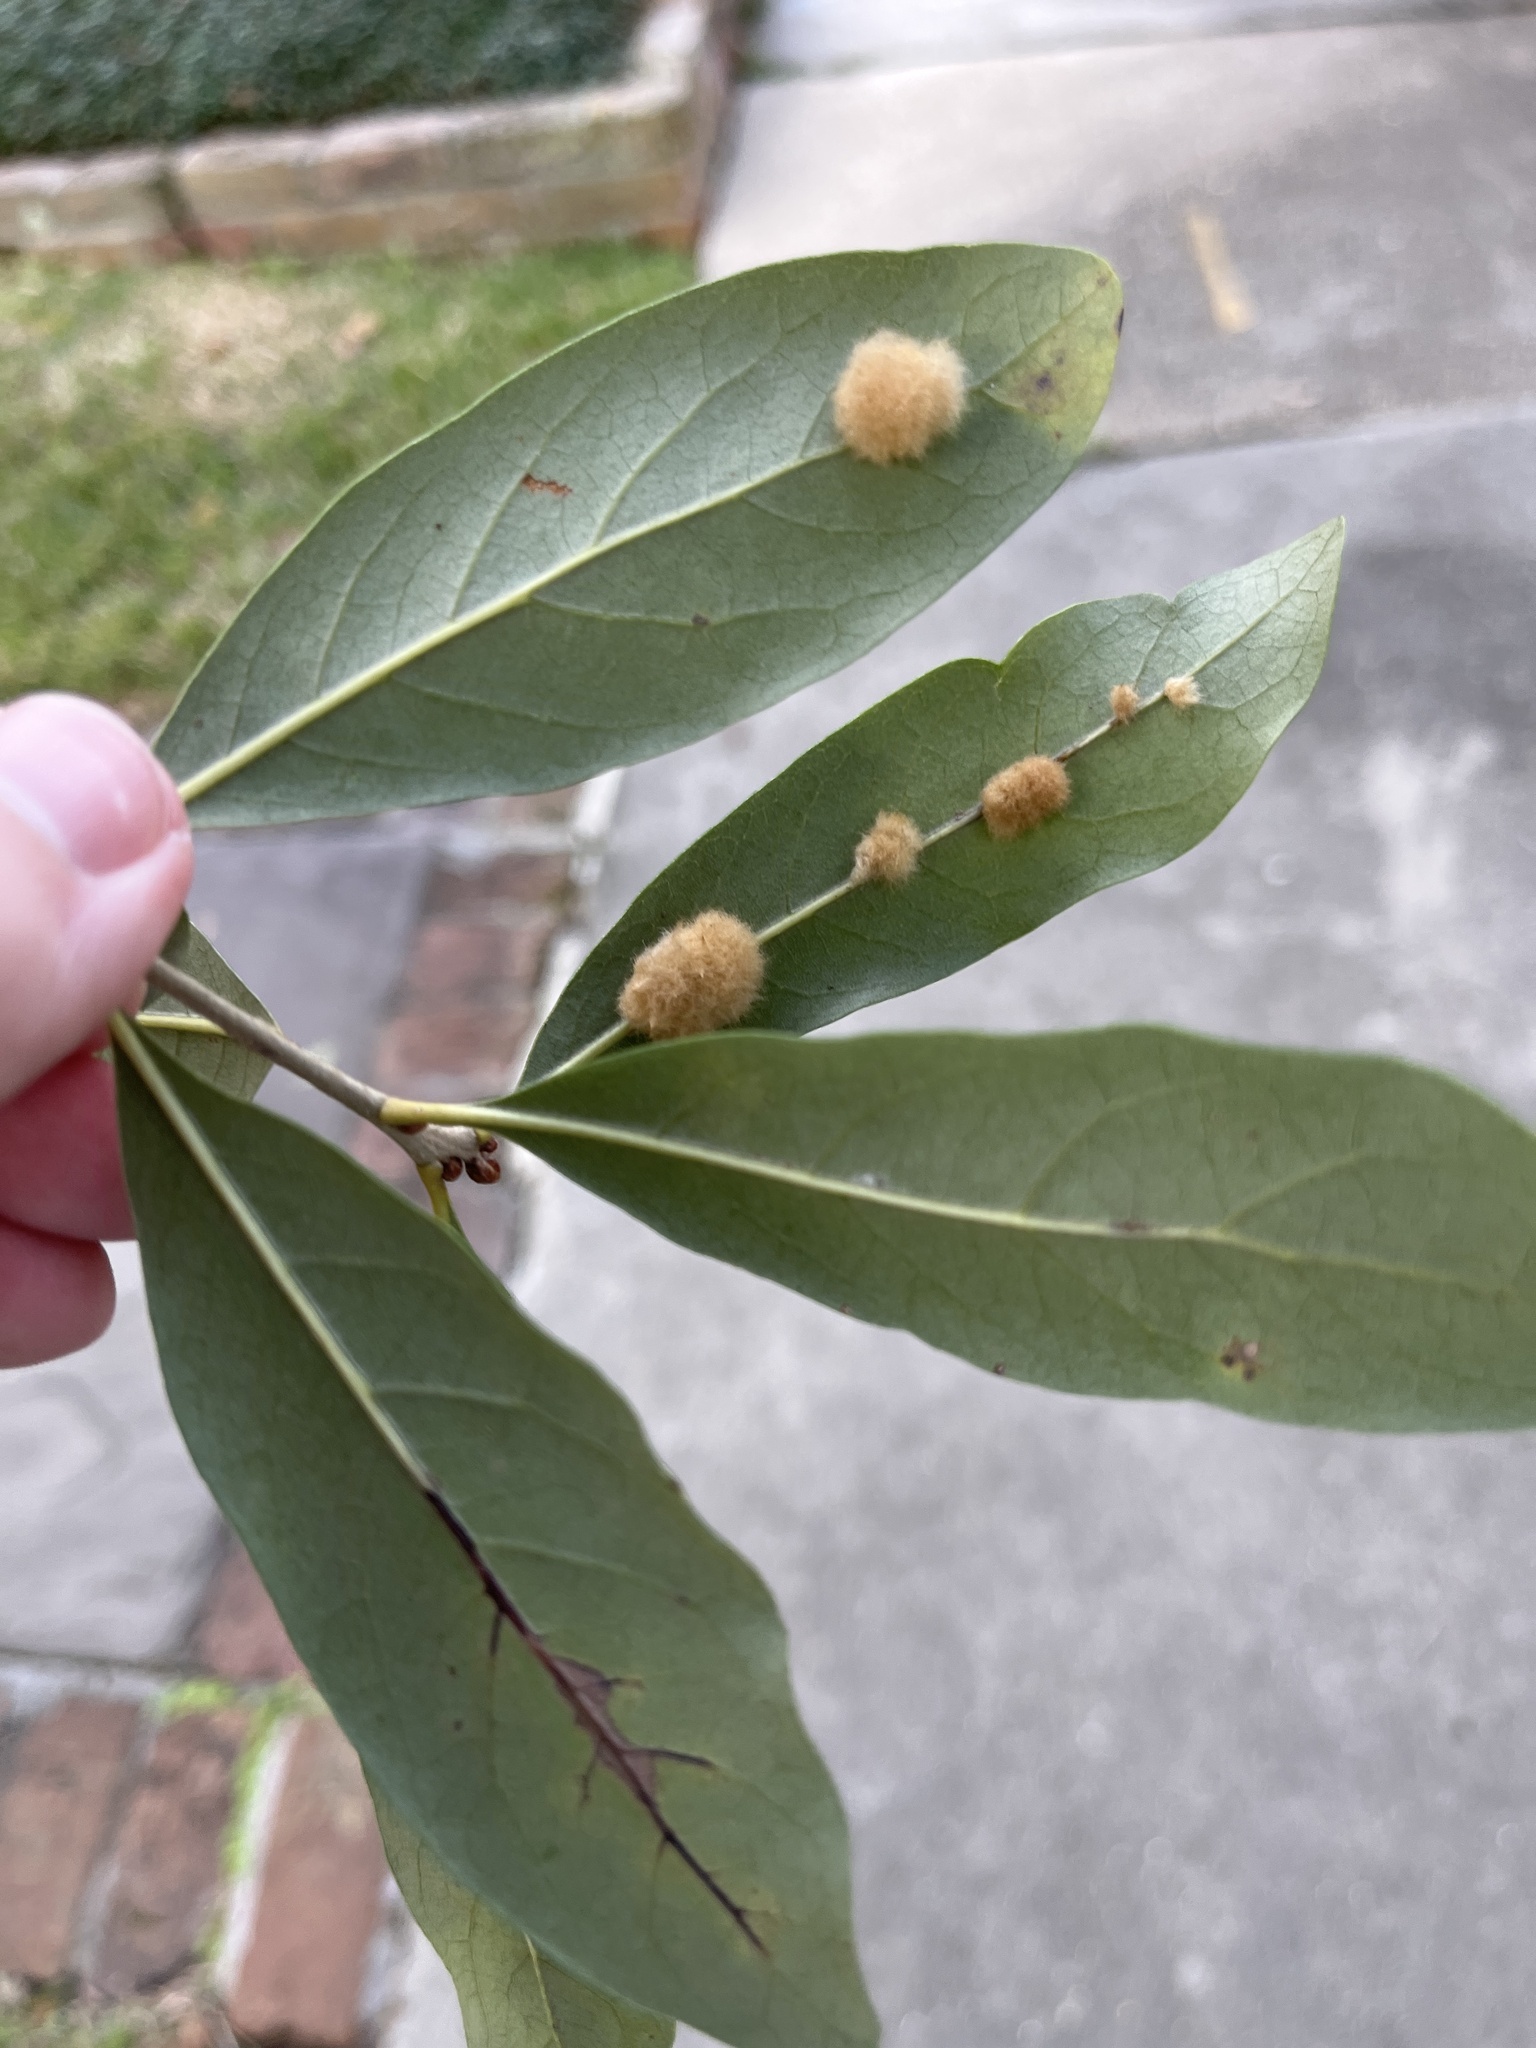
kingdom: Animalia
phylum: Arthropoda
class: Insecta
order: Hymenoptera
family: Cynipidae
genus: Andricus
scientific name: Andricus Druon quercuslanigerum
